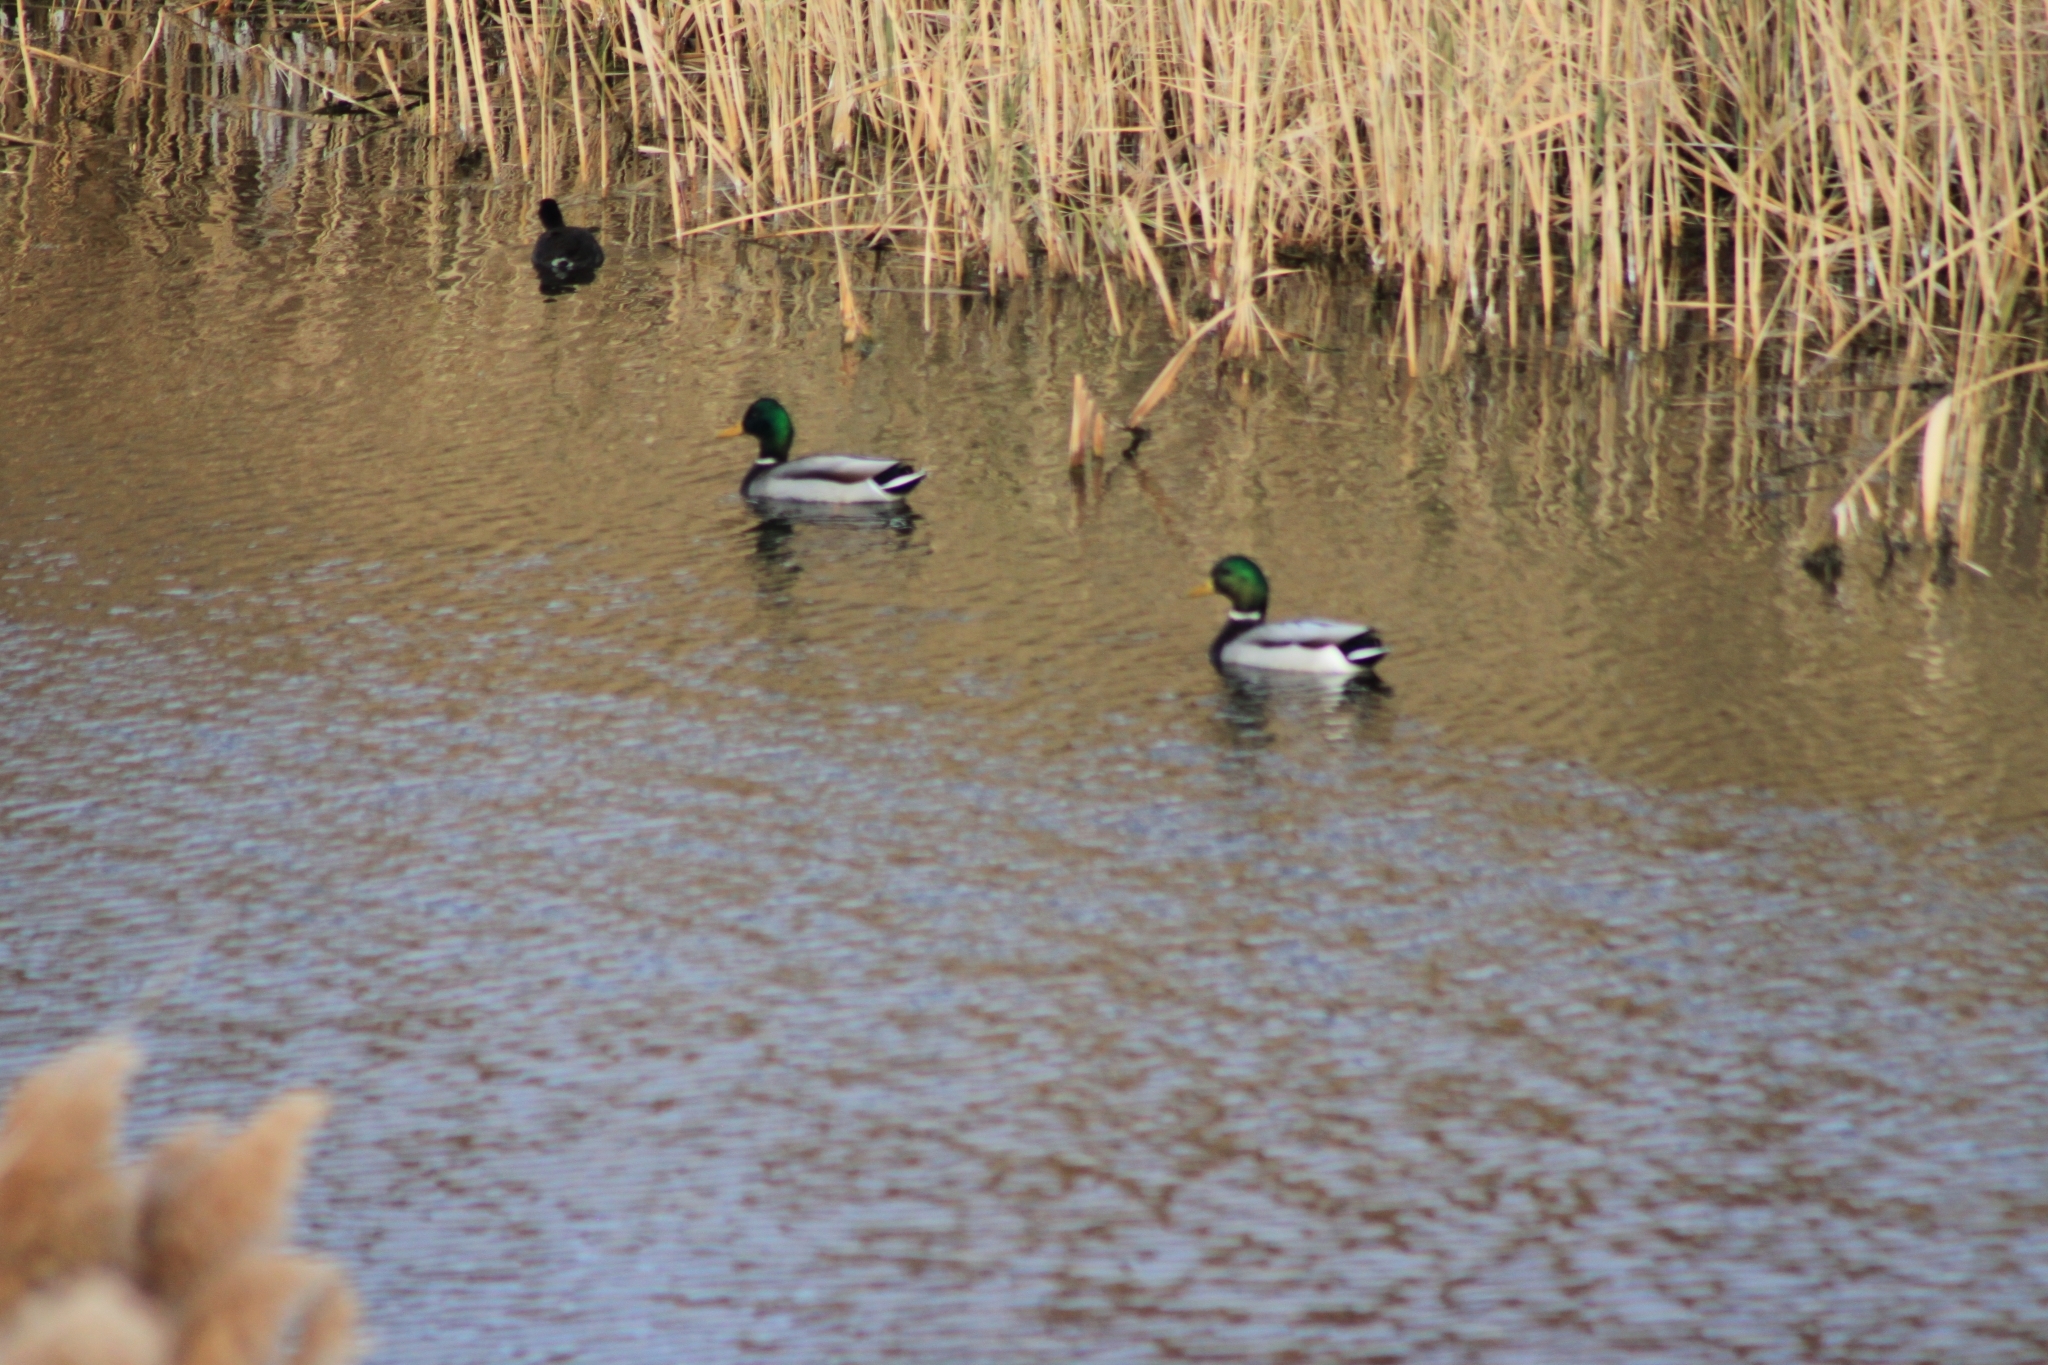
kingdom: Animalia
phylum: Chordata
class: Aves
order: Anseriformes
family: Anatidae
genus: Anas
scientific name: Anas platyrhynchos
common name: Mallard
